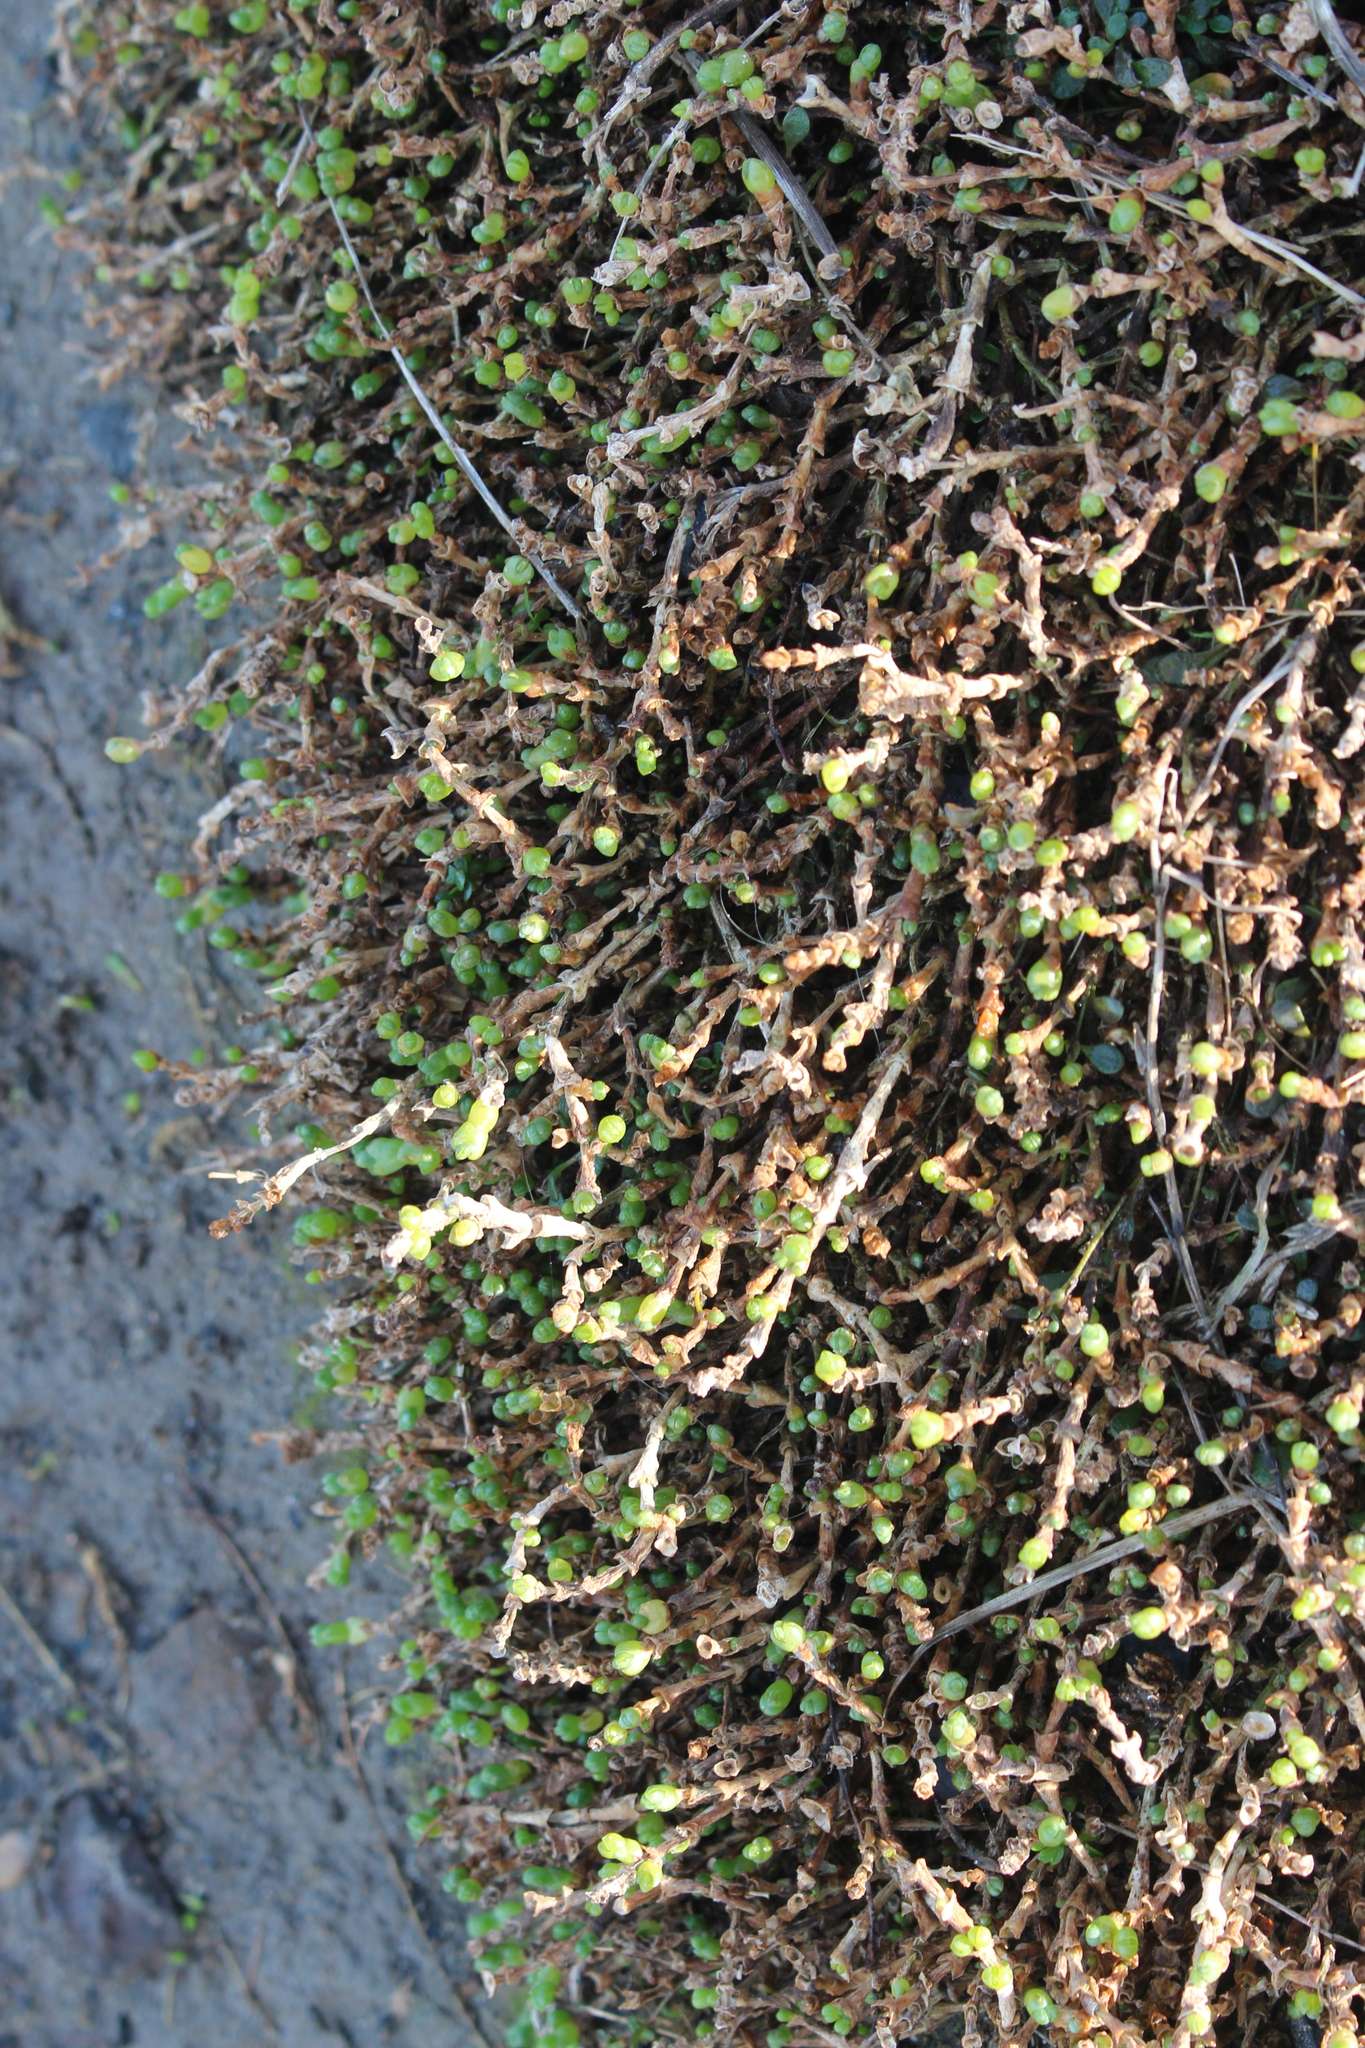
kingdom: Plantae
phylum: Tracheophyta
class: Magnoliopsida
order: Caryophyllales
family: Amaranthaceae
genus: Salicornia
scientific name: Salicornia quinqueflora
